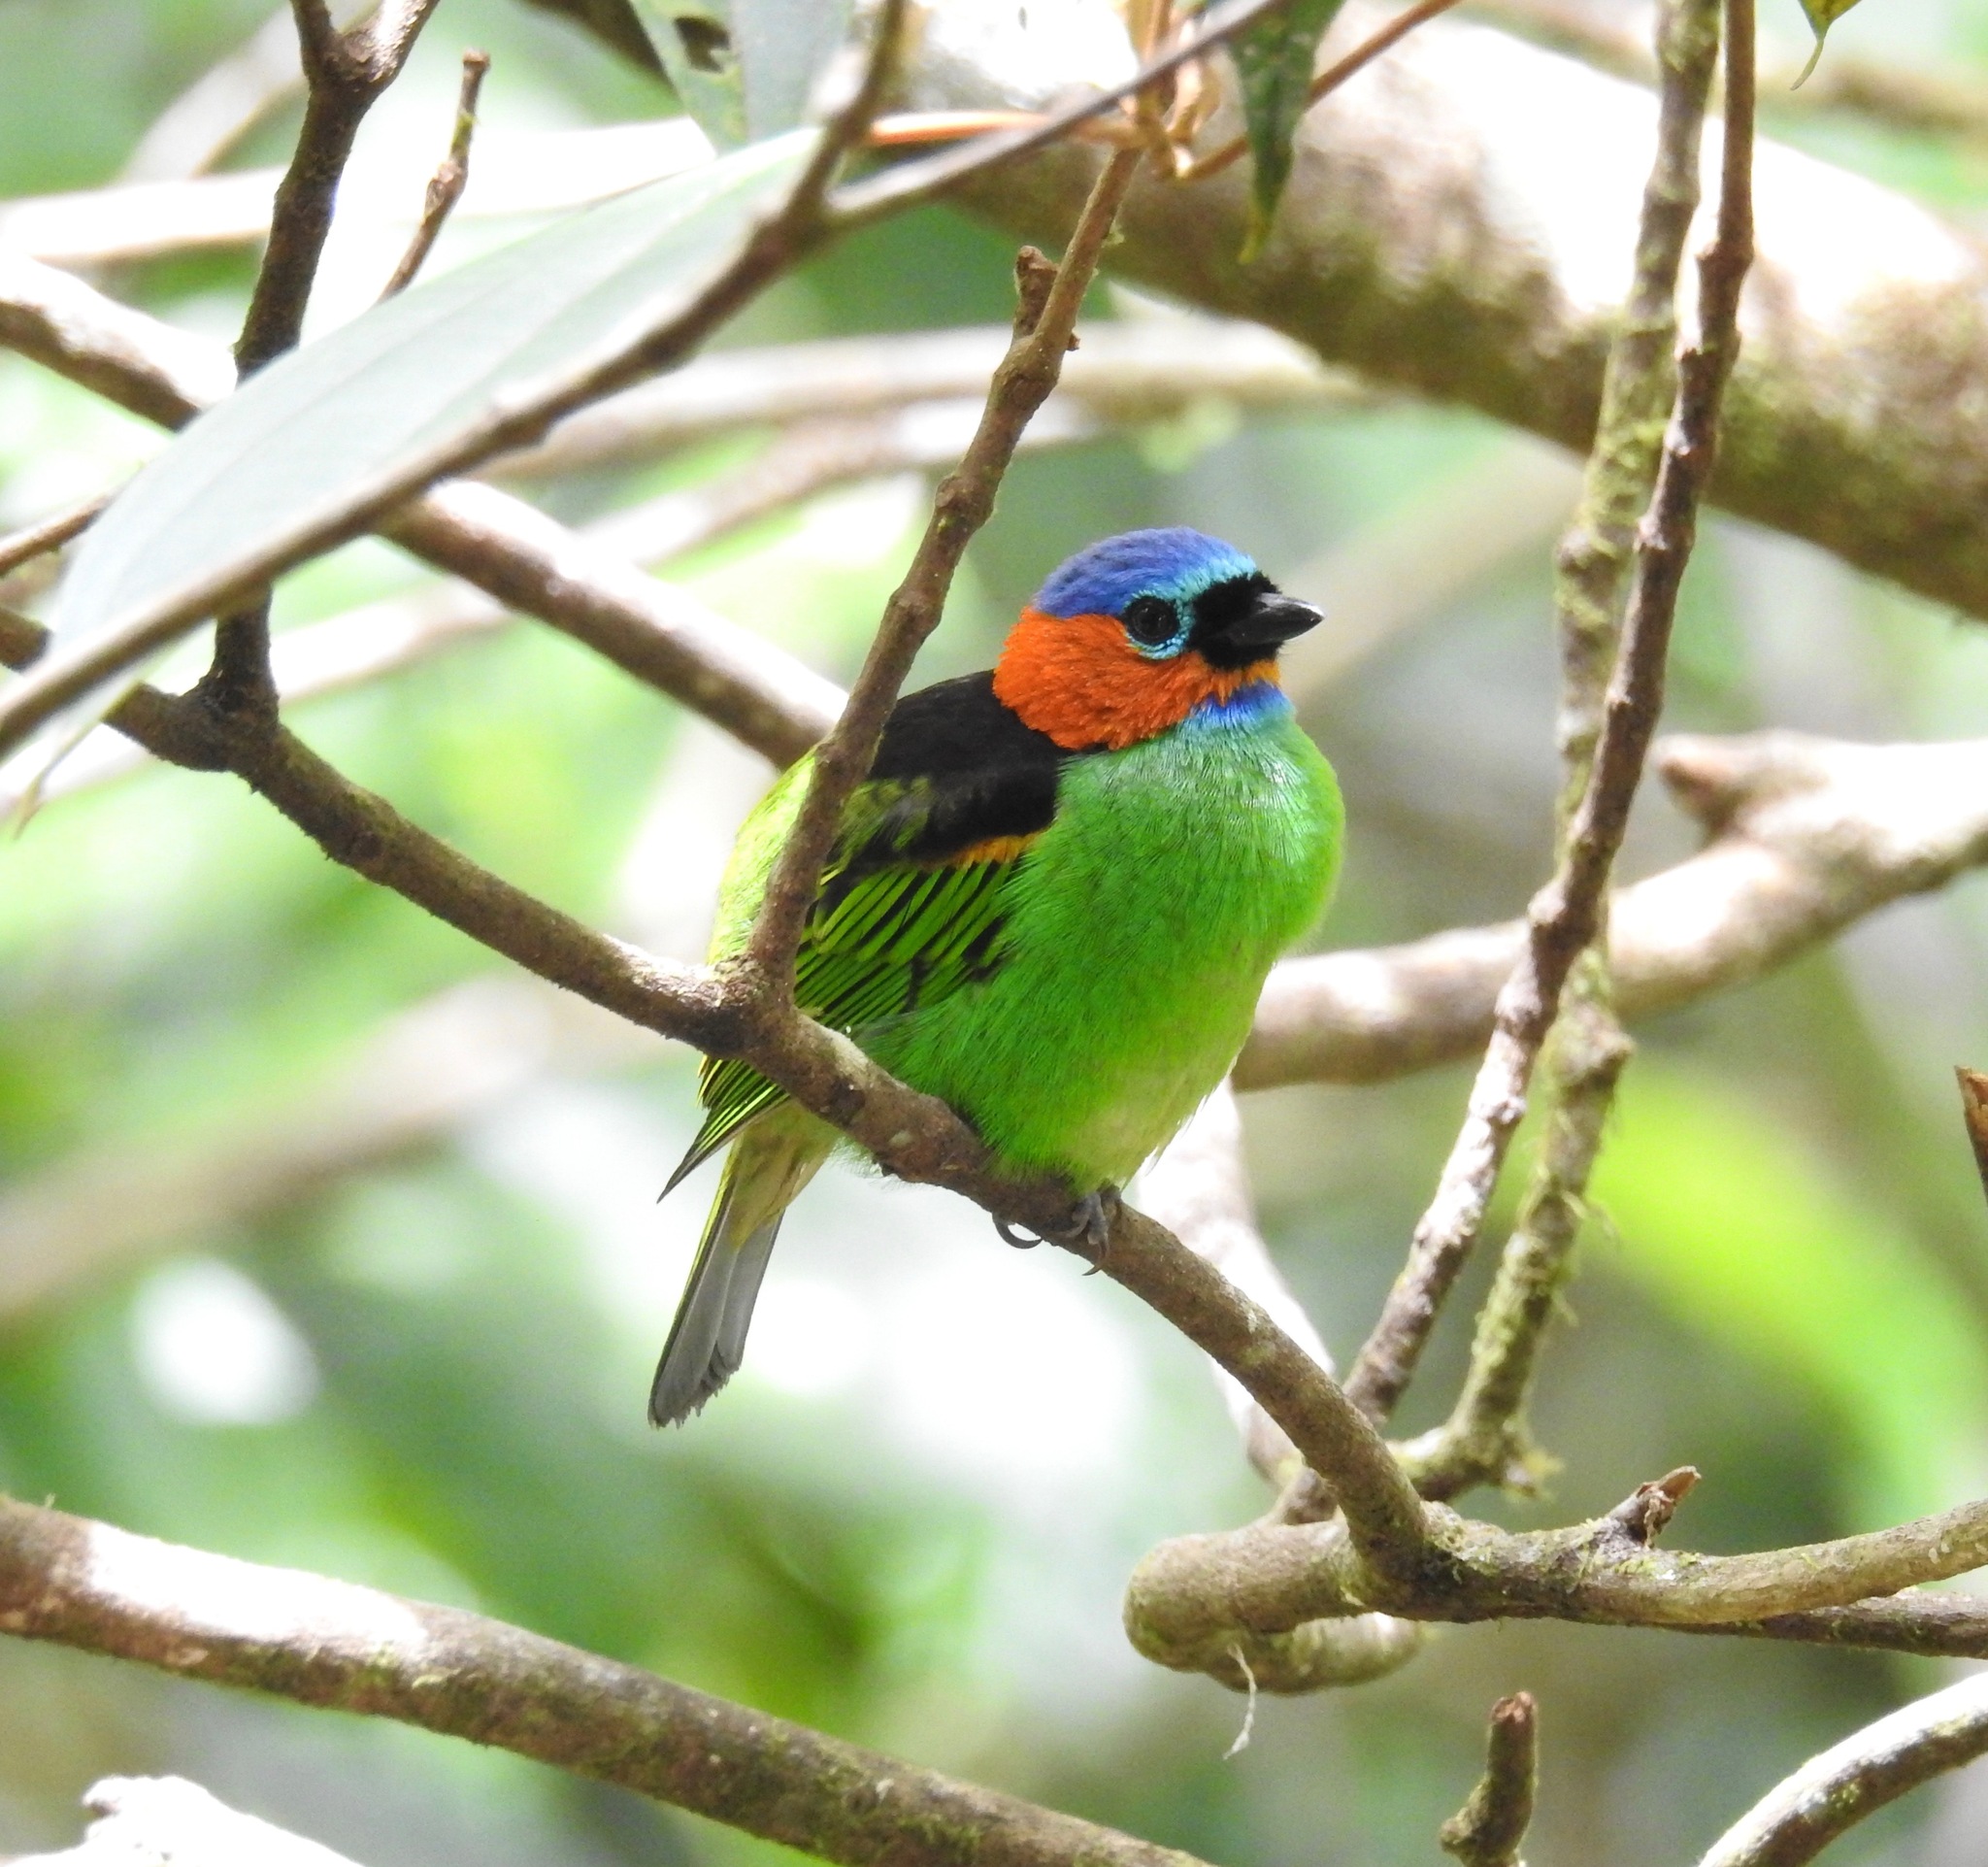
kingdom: Animalia
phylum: Chordata
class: Aves
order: Passeriformes
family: Thraupidae
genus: Tangara
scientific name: Tangara cyanocephala
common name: Red-necked tanager
